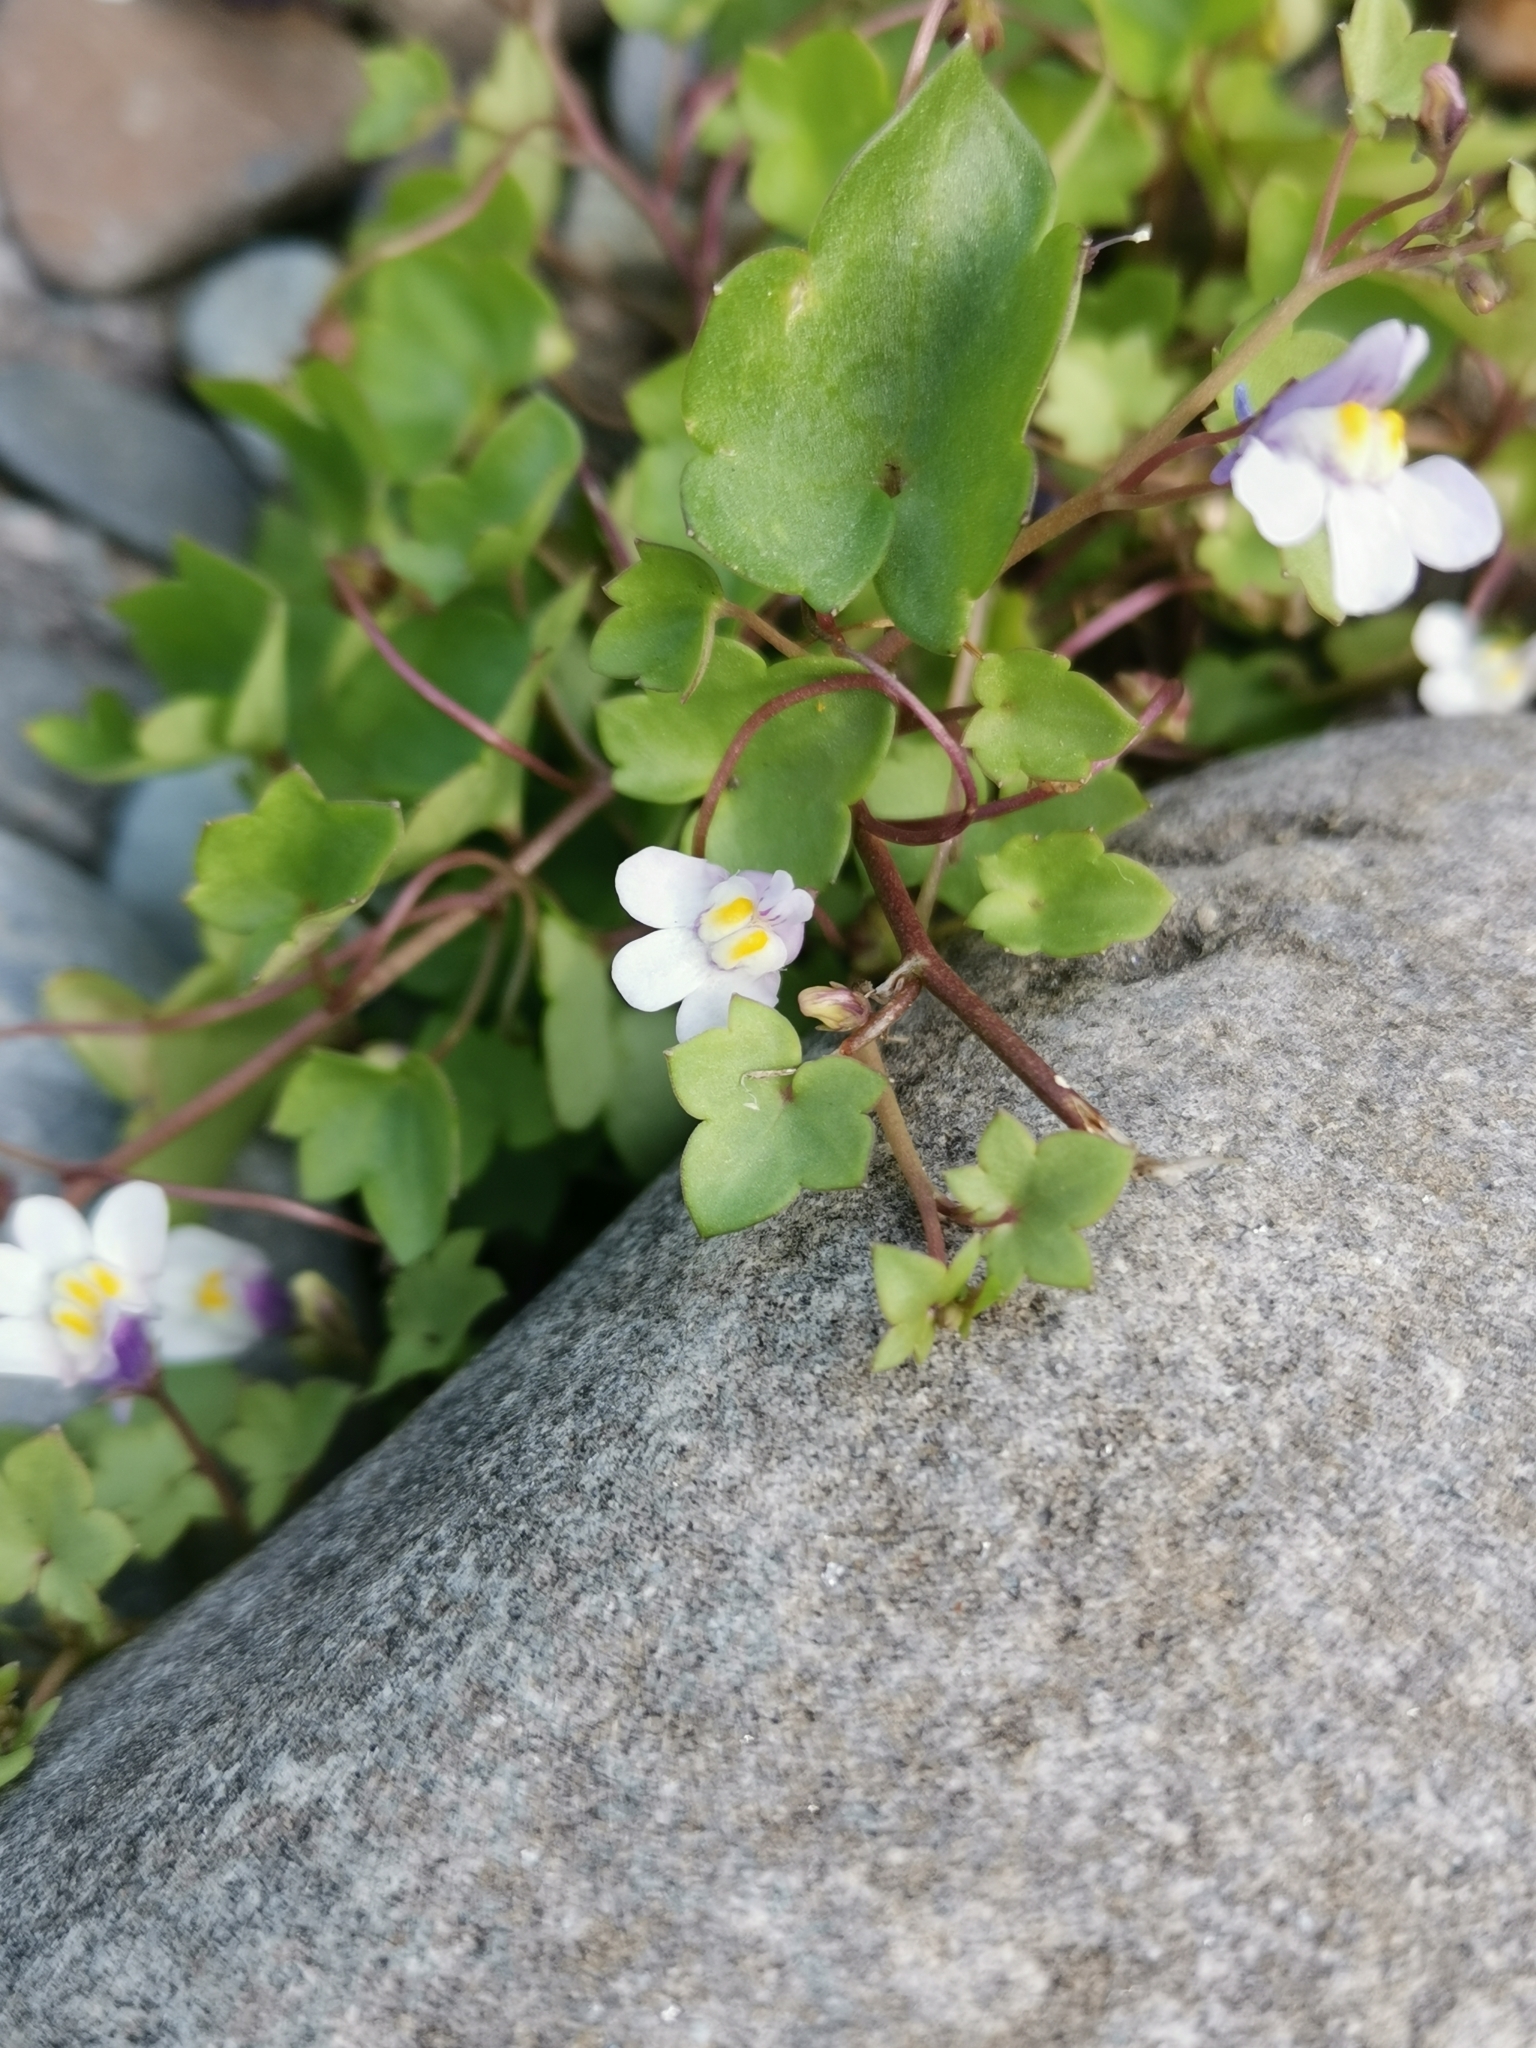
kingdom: Plantae
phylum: Tracheophyta
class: Magnoliopsida
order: Lamiales
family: Plantaginaceae
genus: Cymbalaria
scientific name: Cymbalaria muralis
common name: Ivy-leaved toadflax
